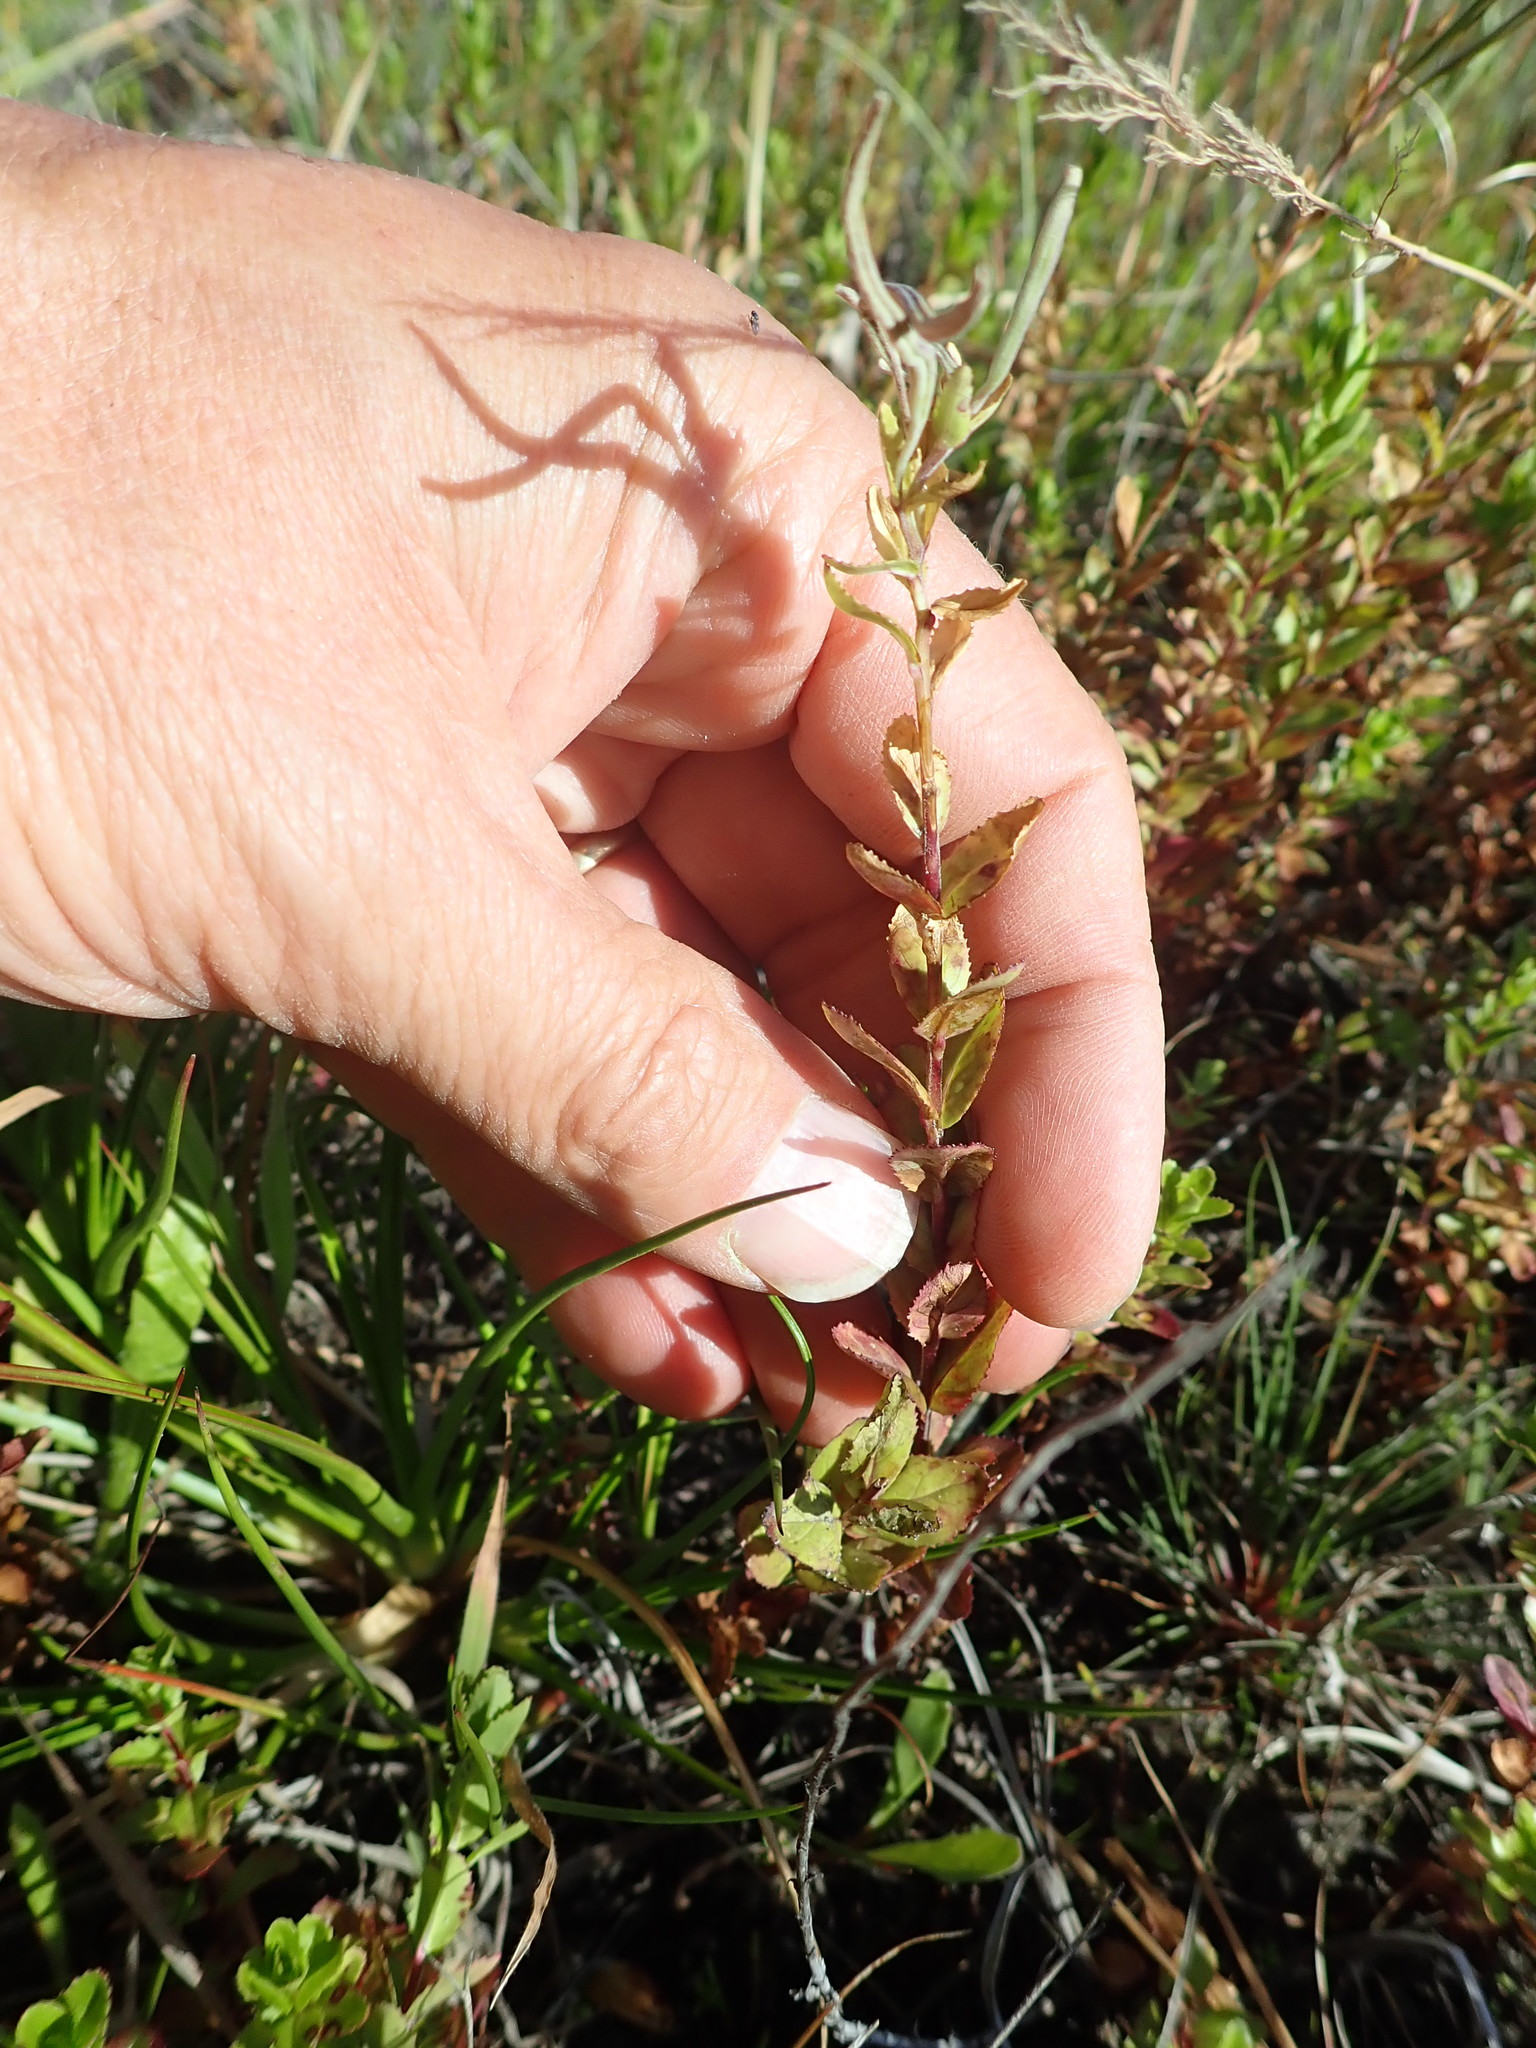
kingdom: Plantae
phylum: Tracheophyta
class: Magnoliopsida
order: Myrtales
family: Onagraceae
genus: Epilobium
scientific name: Epilobium billardiereanum
